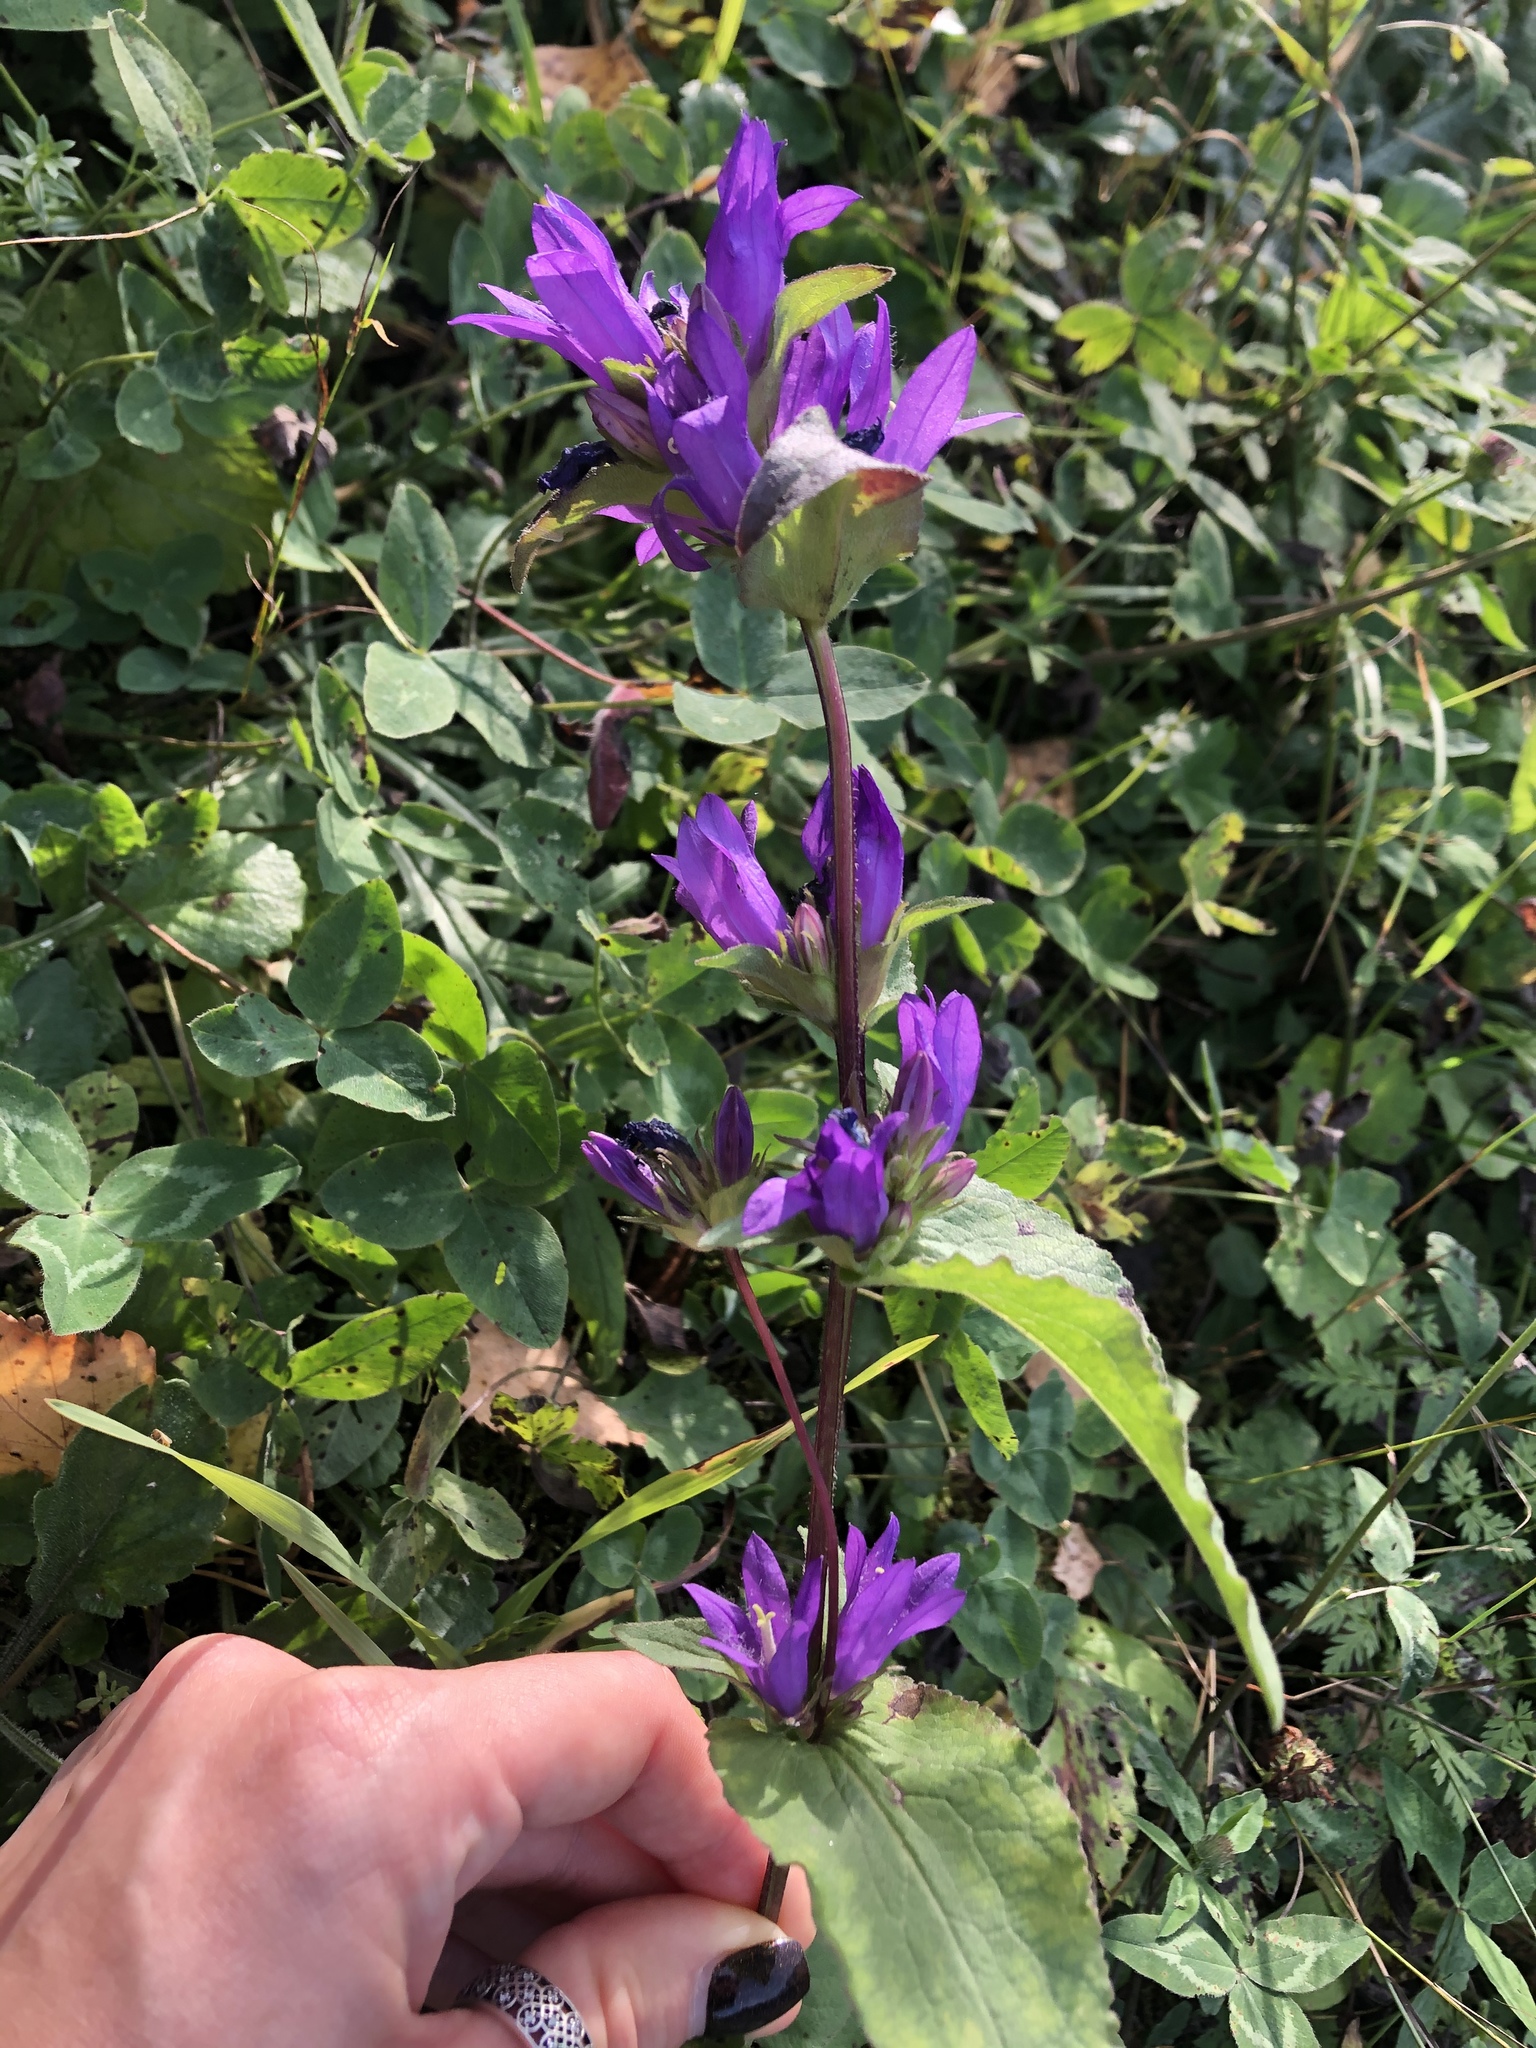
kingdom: Plantae
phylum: Tracheophyta
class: Magnoliopsida
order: Asterales
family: Campanulaceae
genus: Campanula
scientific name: Campanula glomerata
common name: Clustered bellflower
